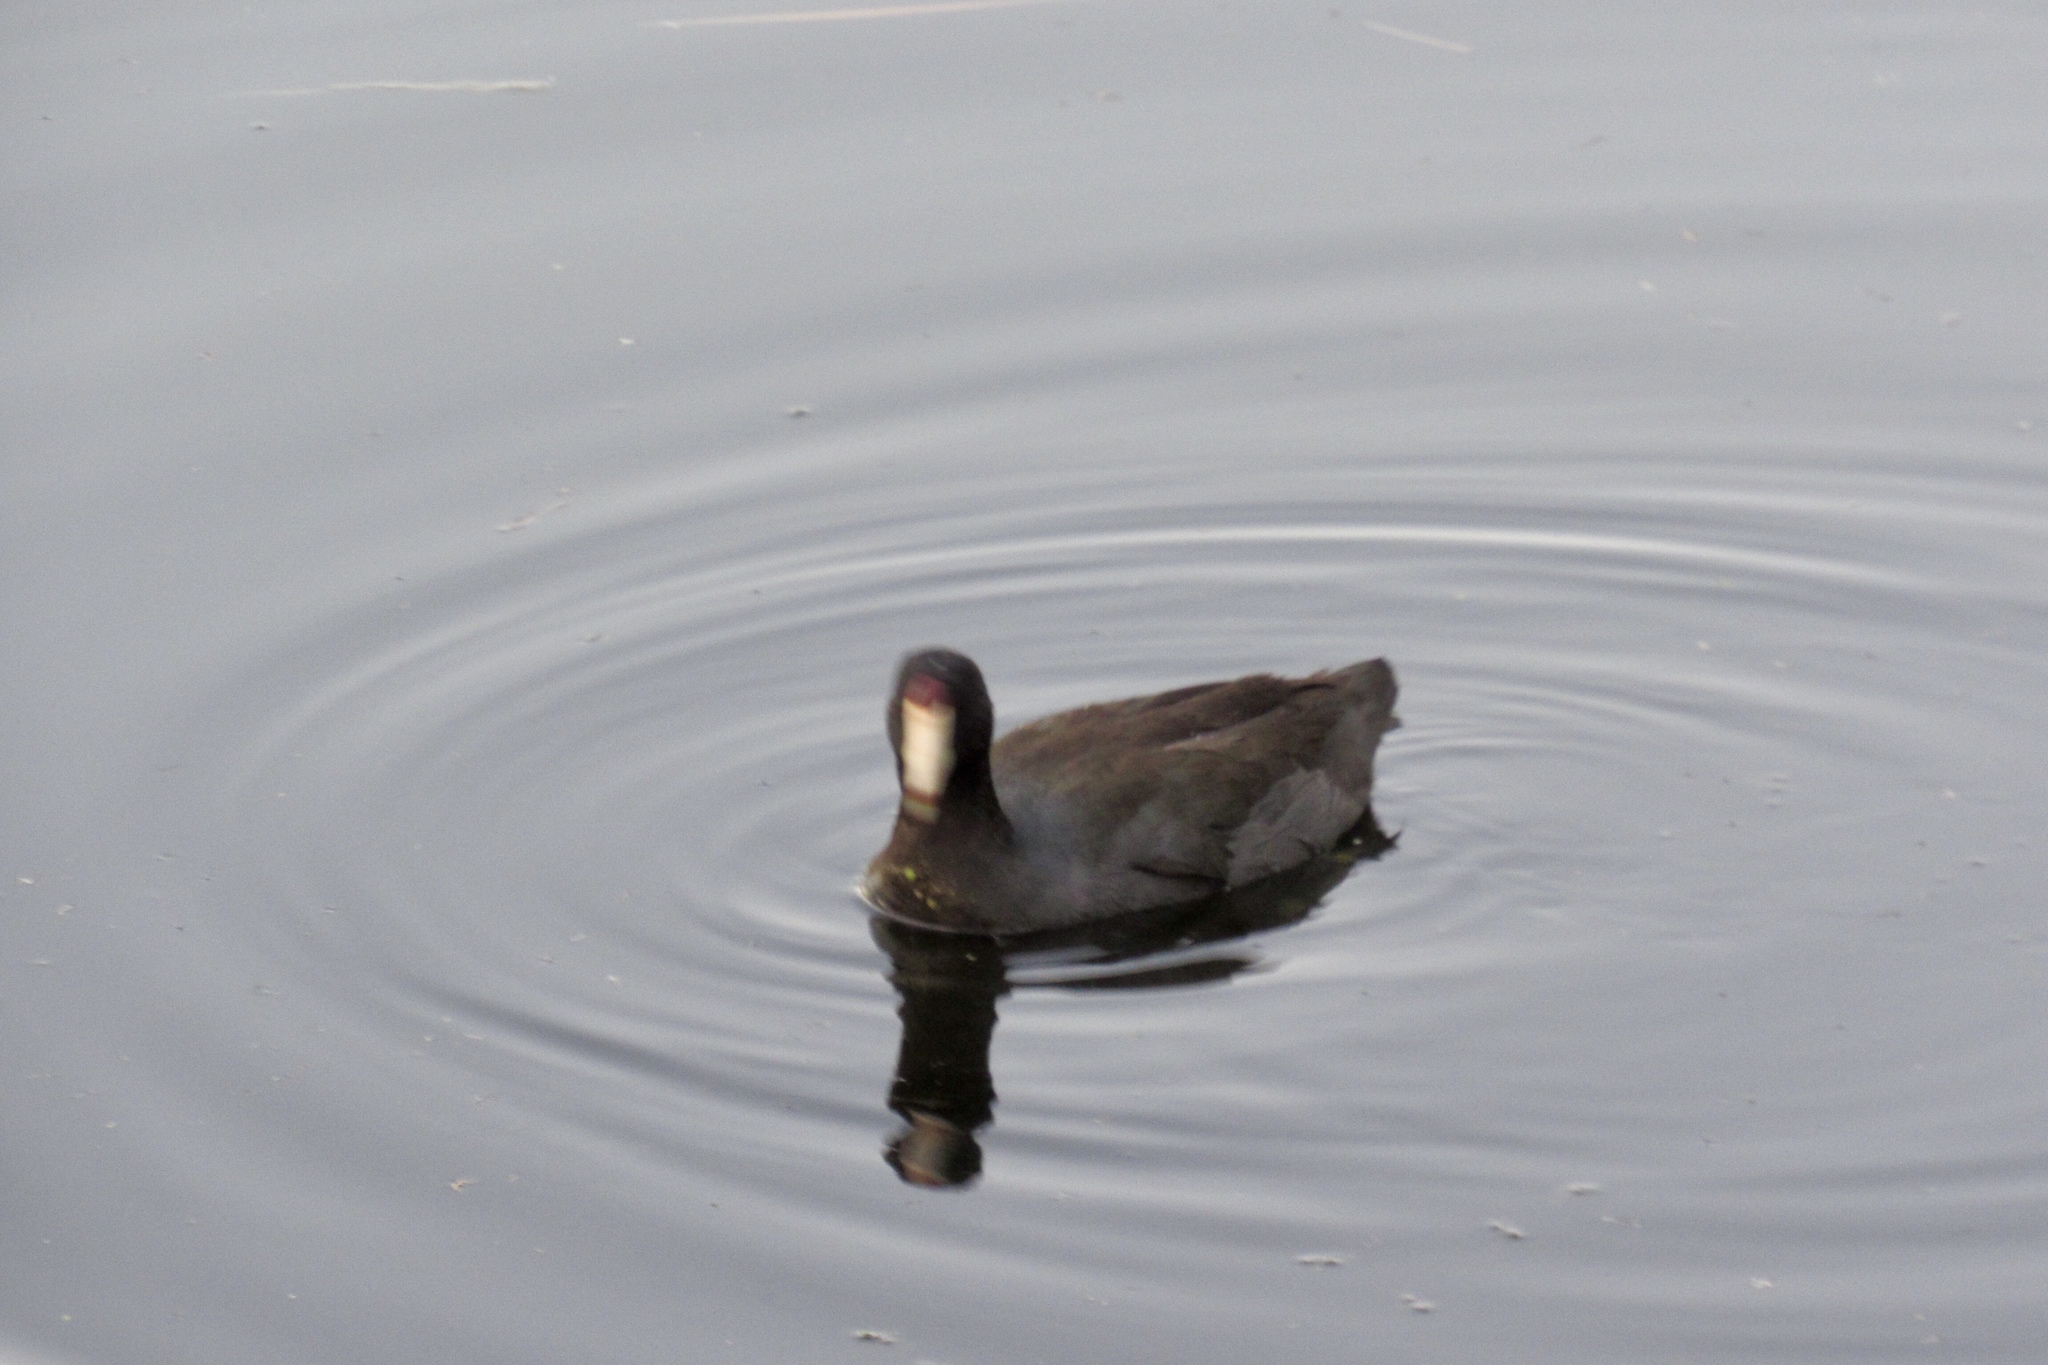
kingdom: Animalia
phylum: Chordata
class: Aves
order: Gruiformes
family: Rallidae
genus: Fulica
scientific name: Fulica americana
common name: American coot
